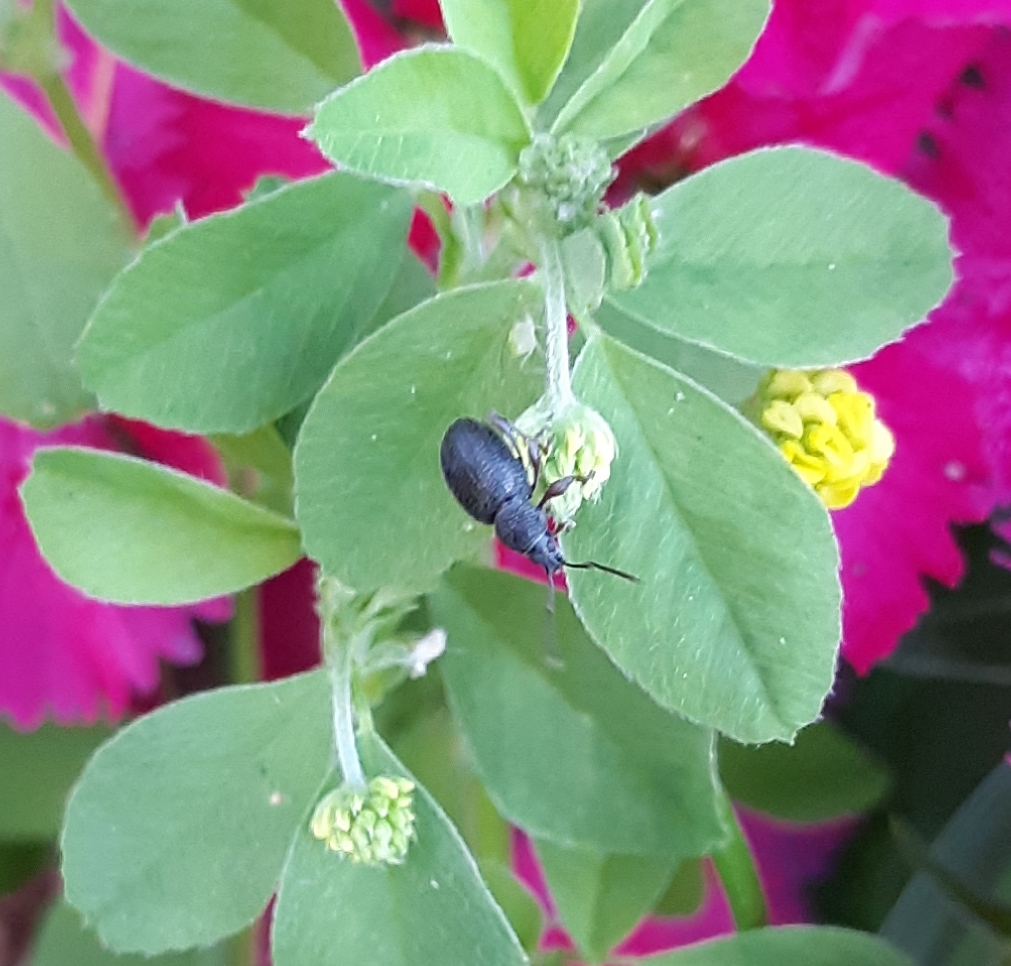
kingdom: Animalia
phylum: Arthropoda
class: Insecta
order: Coleoptera
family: Curculionidae
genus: Otiorhynchus
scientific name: Otiorhynchus ovatus
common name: Strawberry root weevil
